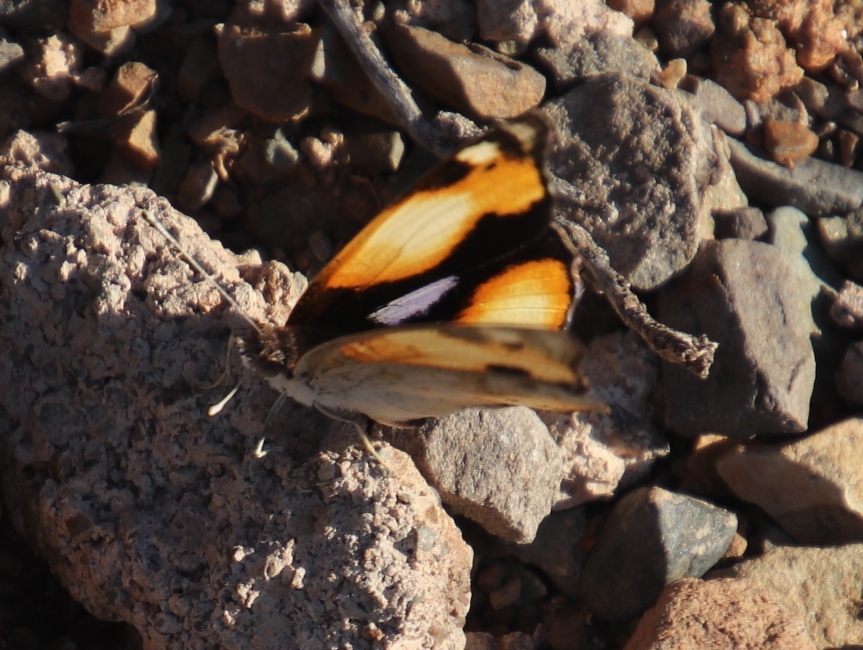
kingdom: Animalia
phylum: Arthropoda
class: Insecta
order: Lepidoptera
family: Nymphalidae
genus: Junonia
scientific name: Junonia hierta
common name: Yellow pansy
